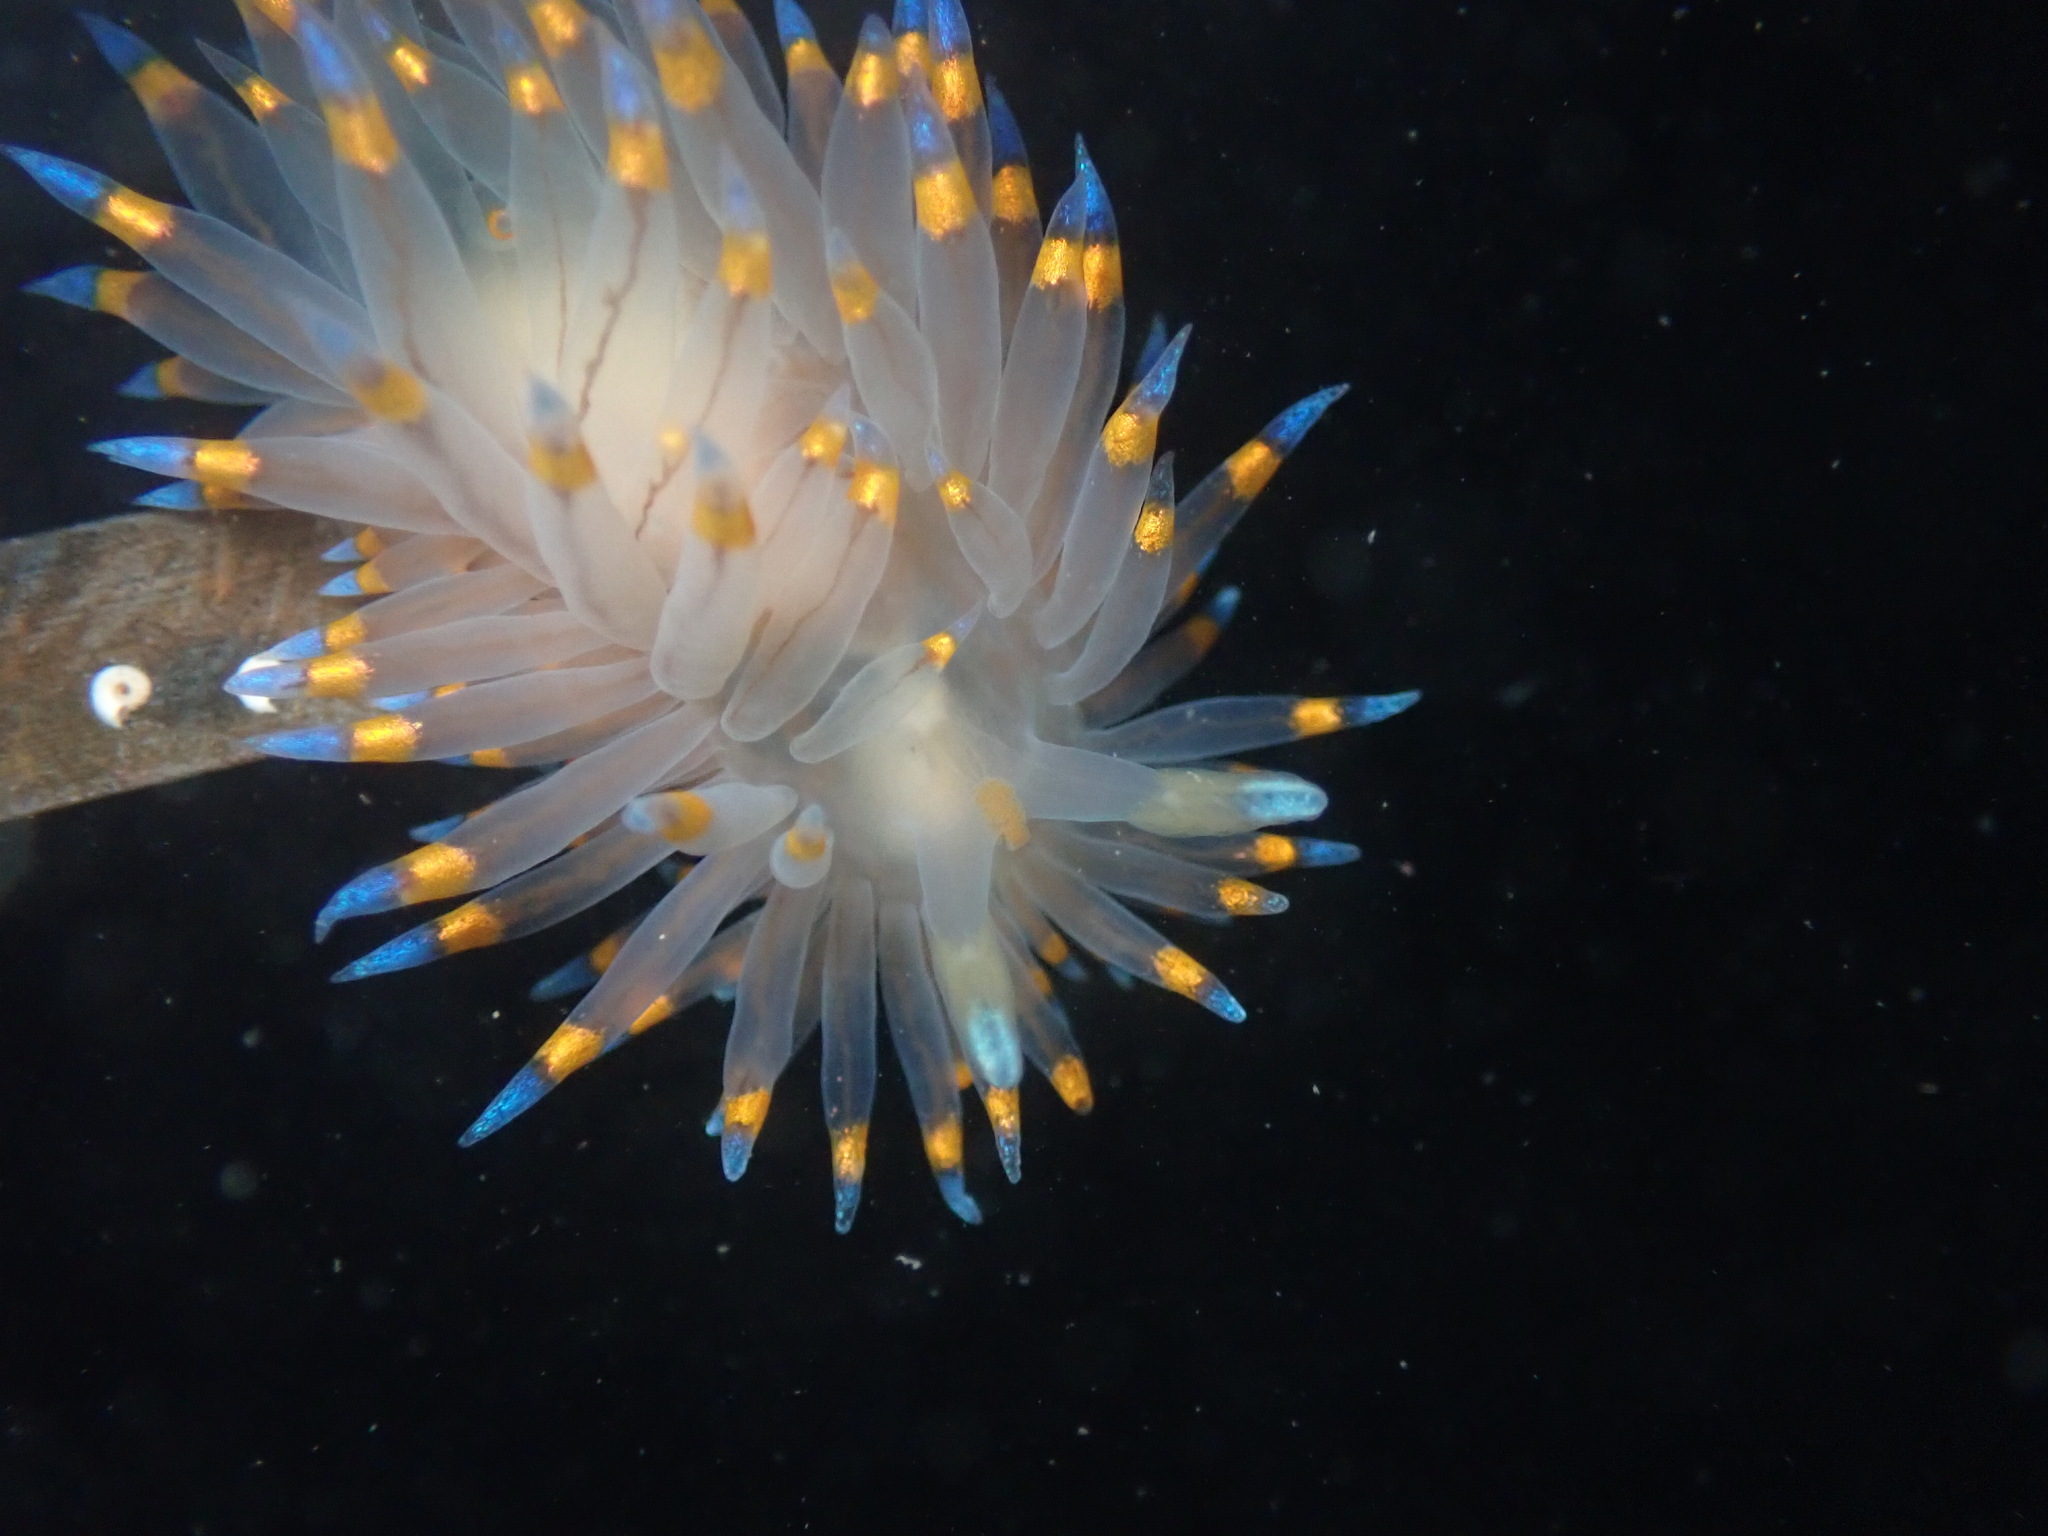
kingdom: Animalia
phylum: Mollusca
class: Gastropoda
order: Nudibranchia
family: Janolidae
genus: Antiopella
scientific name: Antiopella barbarensis
